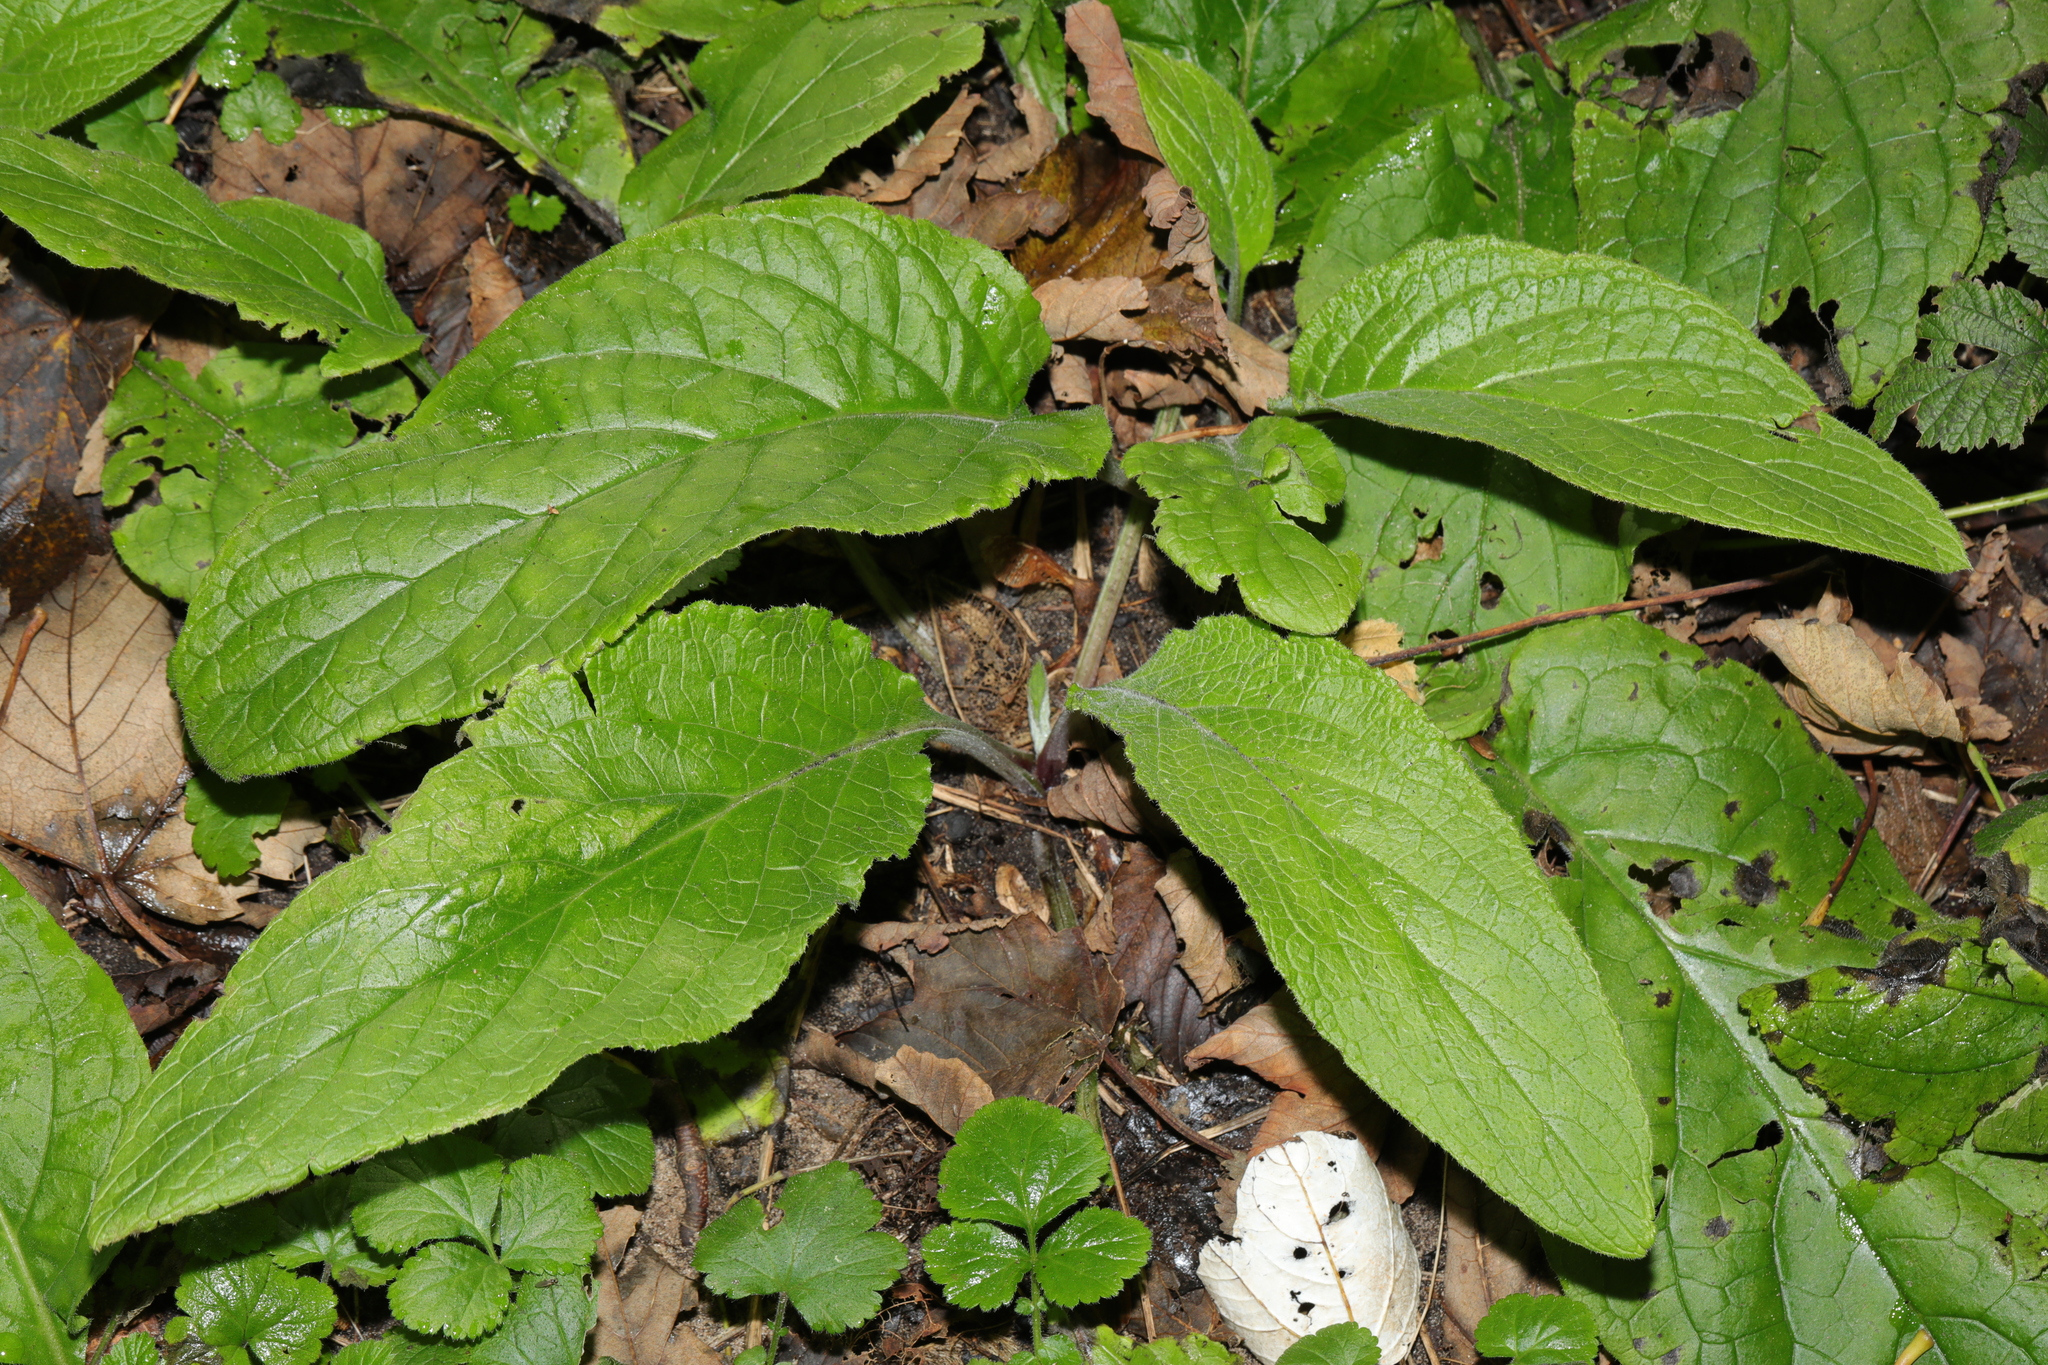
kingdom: Plantae
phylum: Tracheophyta
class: Magnoliopsida
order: Boraginales
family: Boraginaceae
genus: Pentaglottis
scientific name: Pentaglottis sempervirens
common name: Green alkanet
